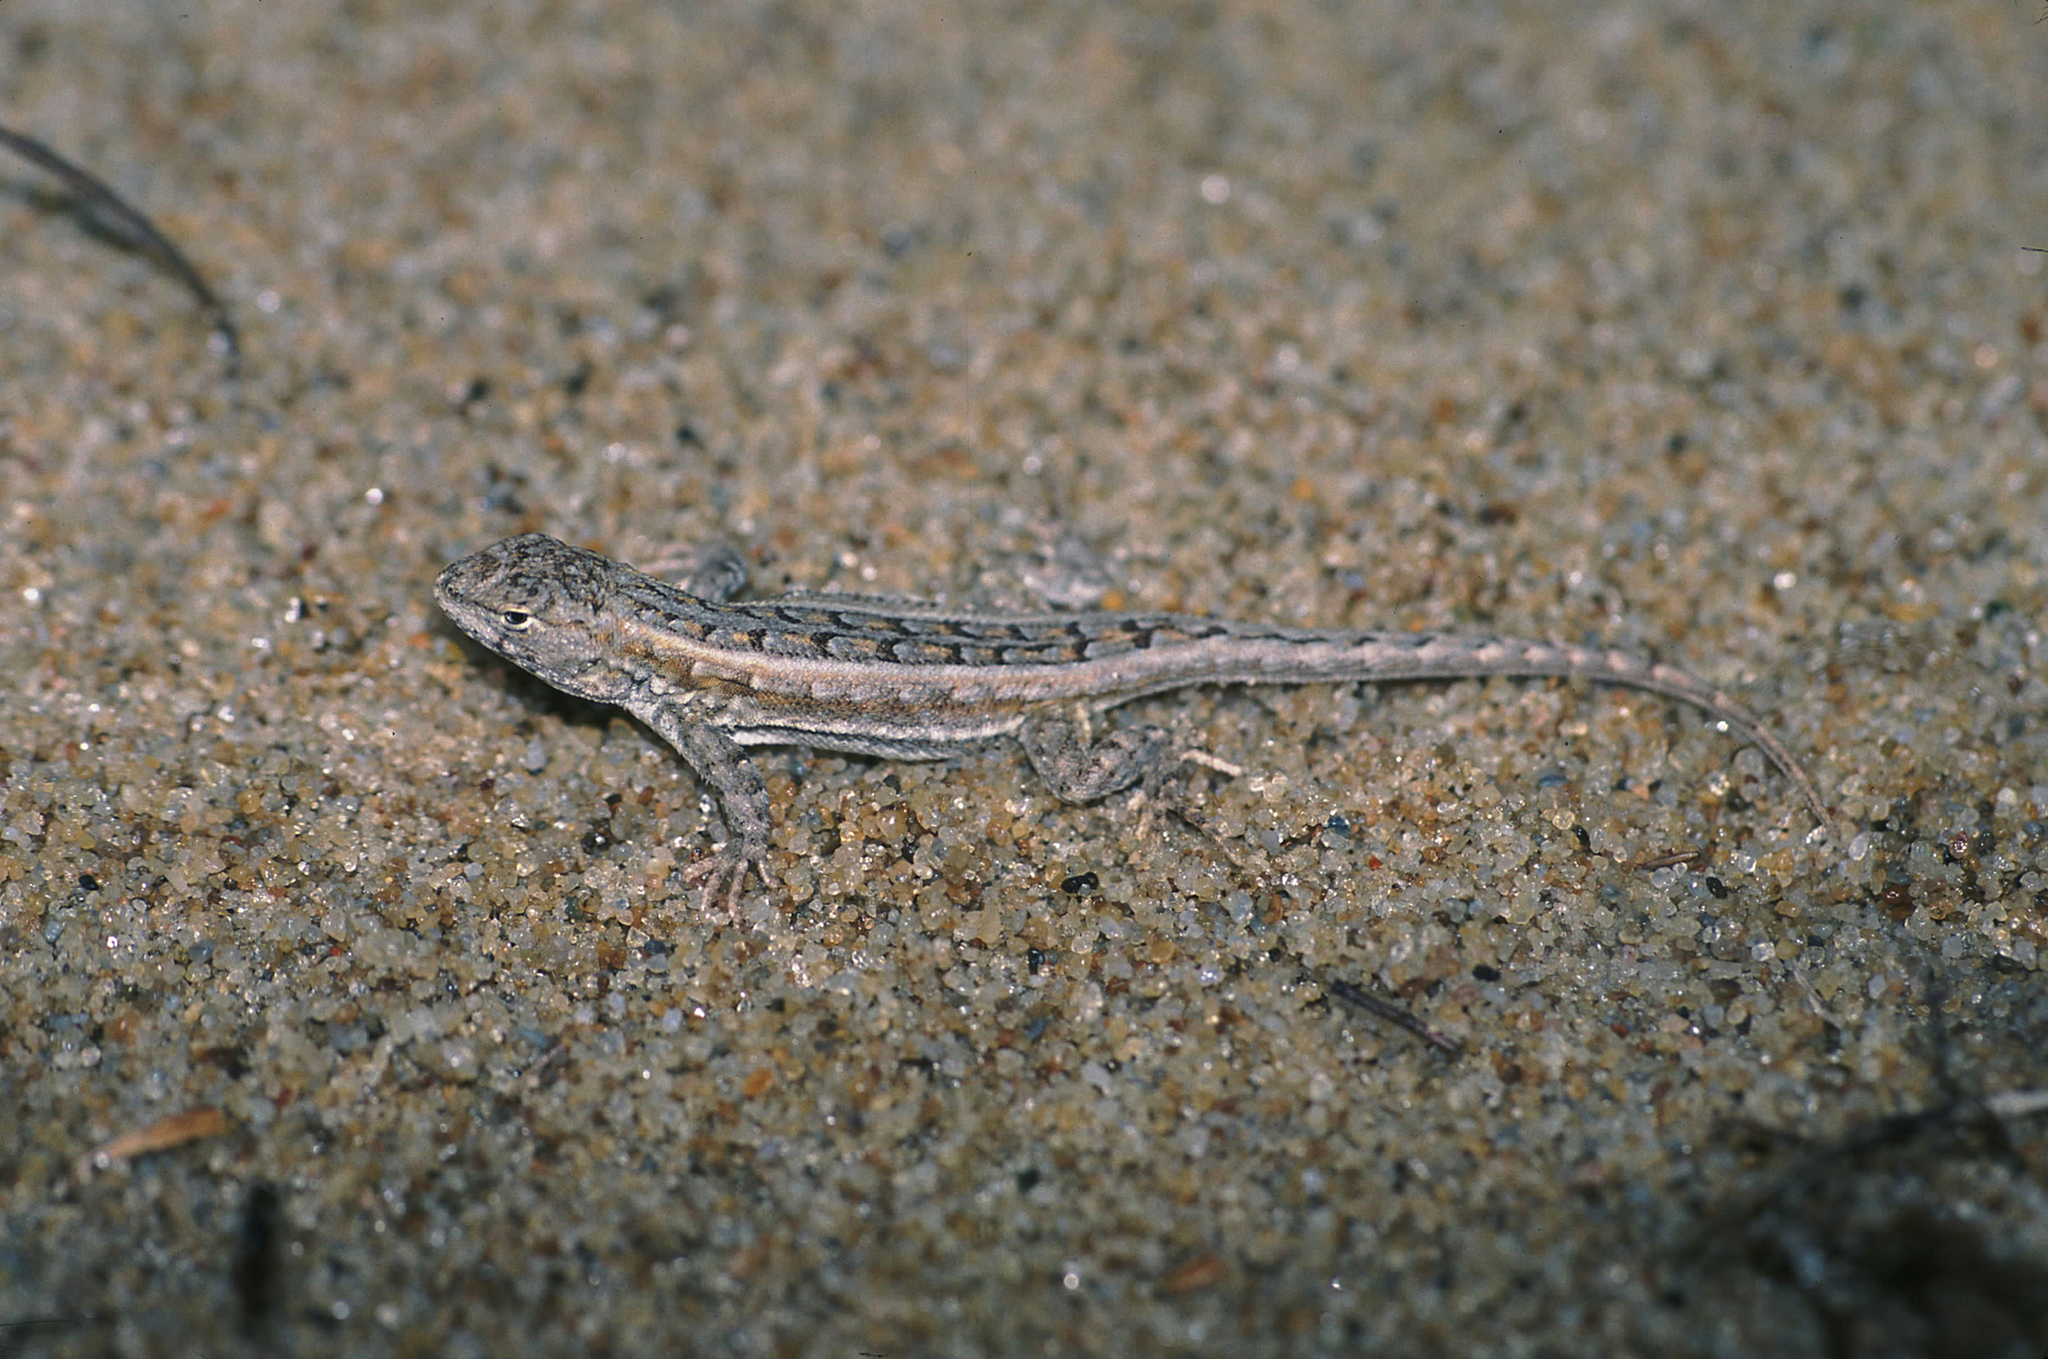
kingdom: Animalia
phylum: Chordata
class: Squamata
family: Liolaemidae
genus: Liolaemus
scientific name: Liolaemus wiegmannii
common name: Wiegmann's tree iguana
